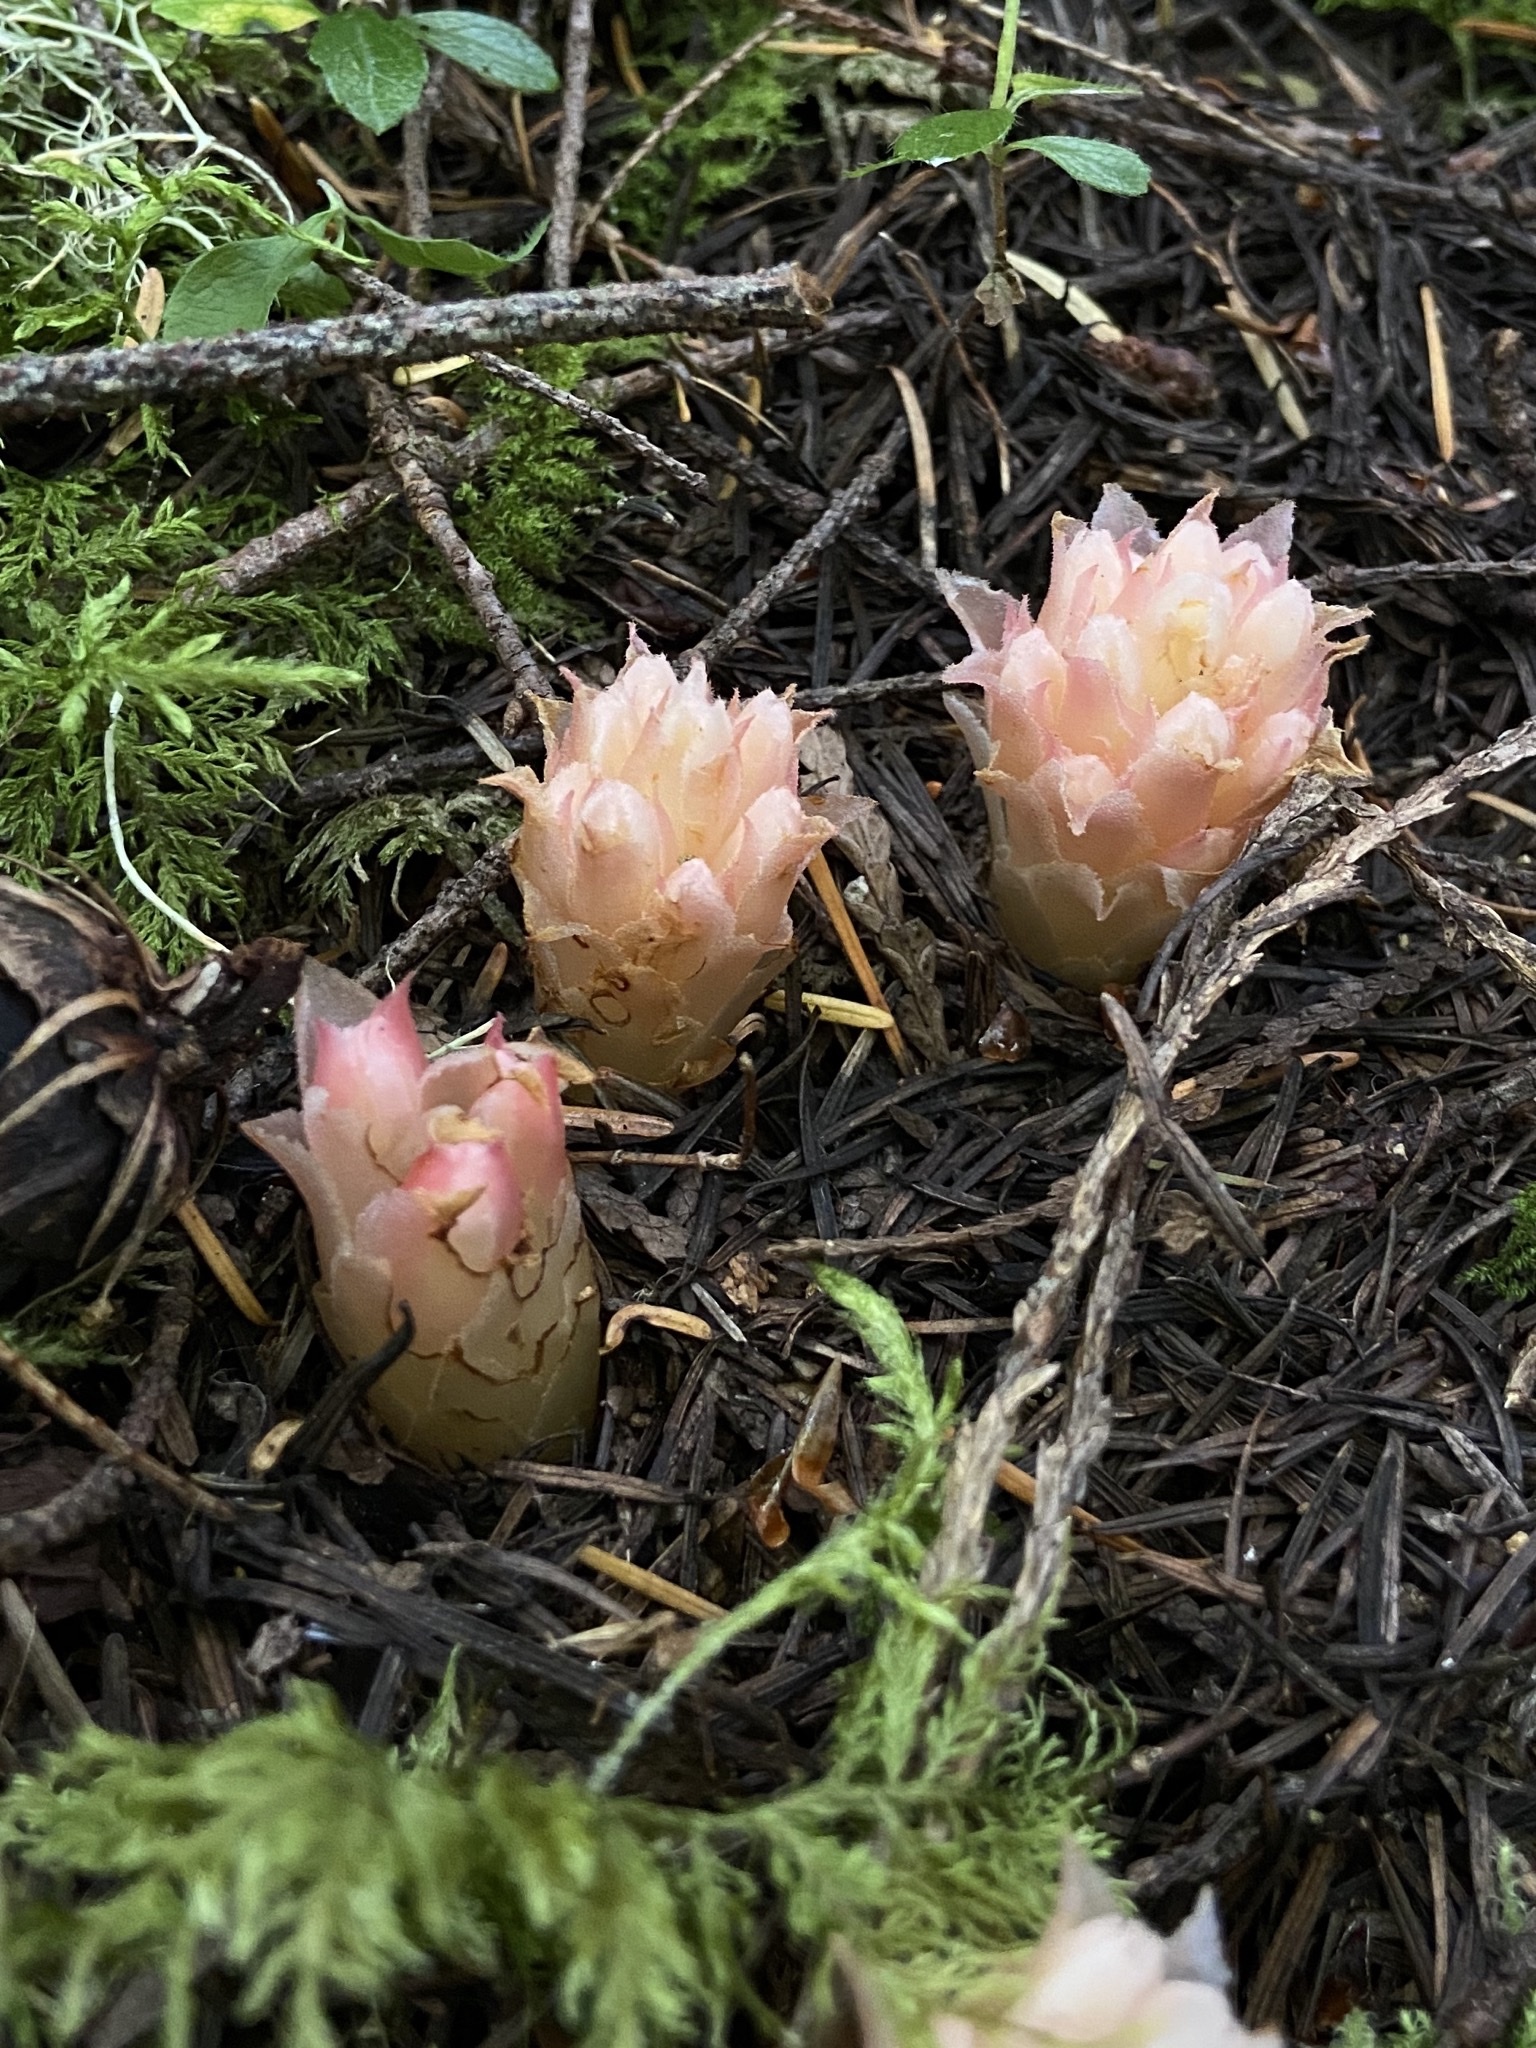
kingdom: Plantae
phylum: Tracheophyta
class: Magnoliopsida
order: Ericales
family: Ericaceae
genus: Hemitomes
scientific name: Hemitomes congestum
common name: Cone plant
